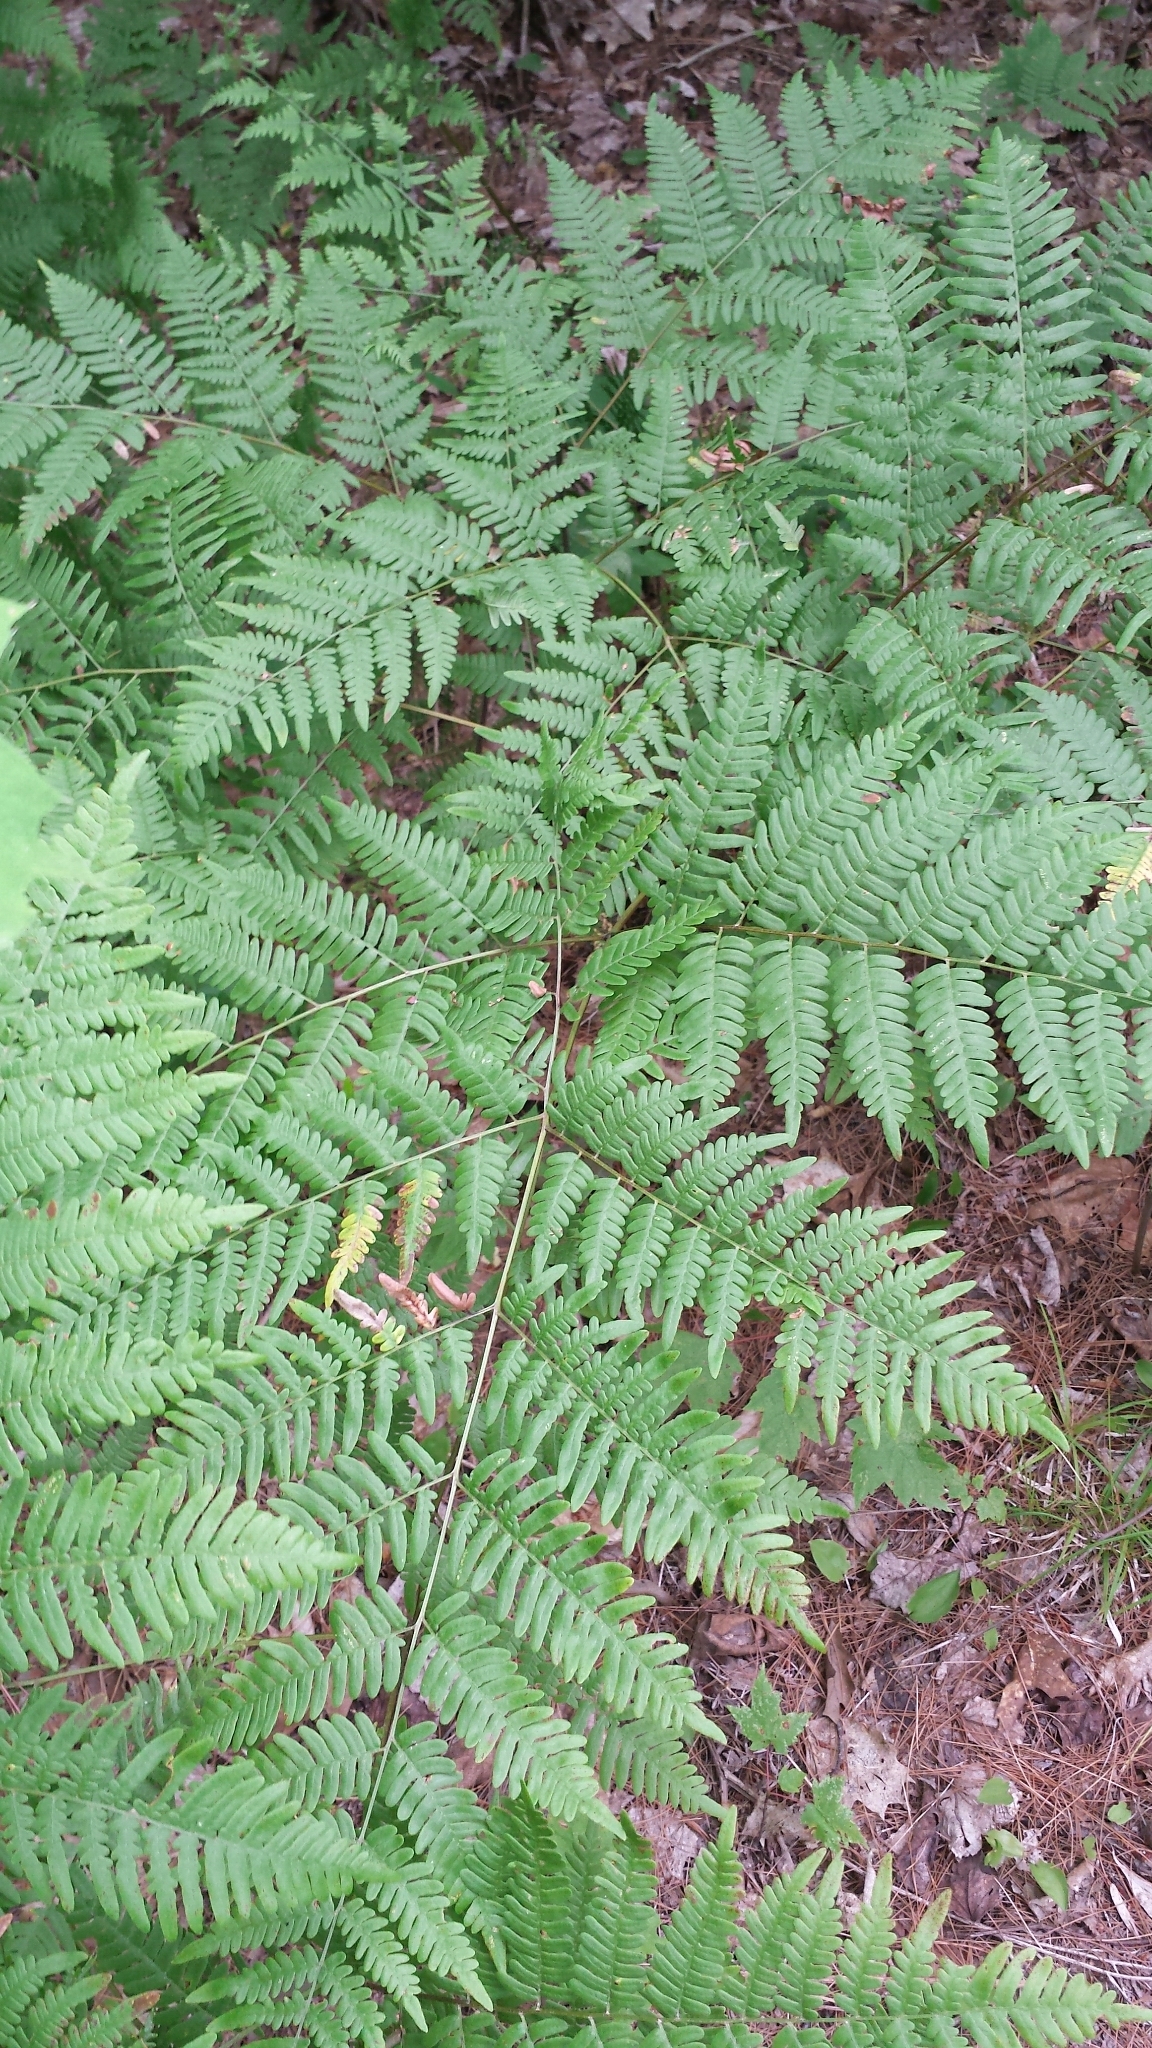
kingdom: Plantae
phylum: Tracheophyta
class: Polypodiopsida
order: Polypodiales
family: Dennstaedtiaceae
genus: Pteridium
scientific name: Pteridium aquilinum
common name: Bracken
